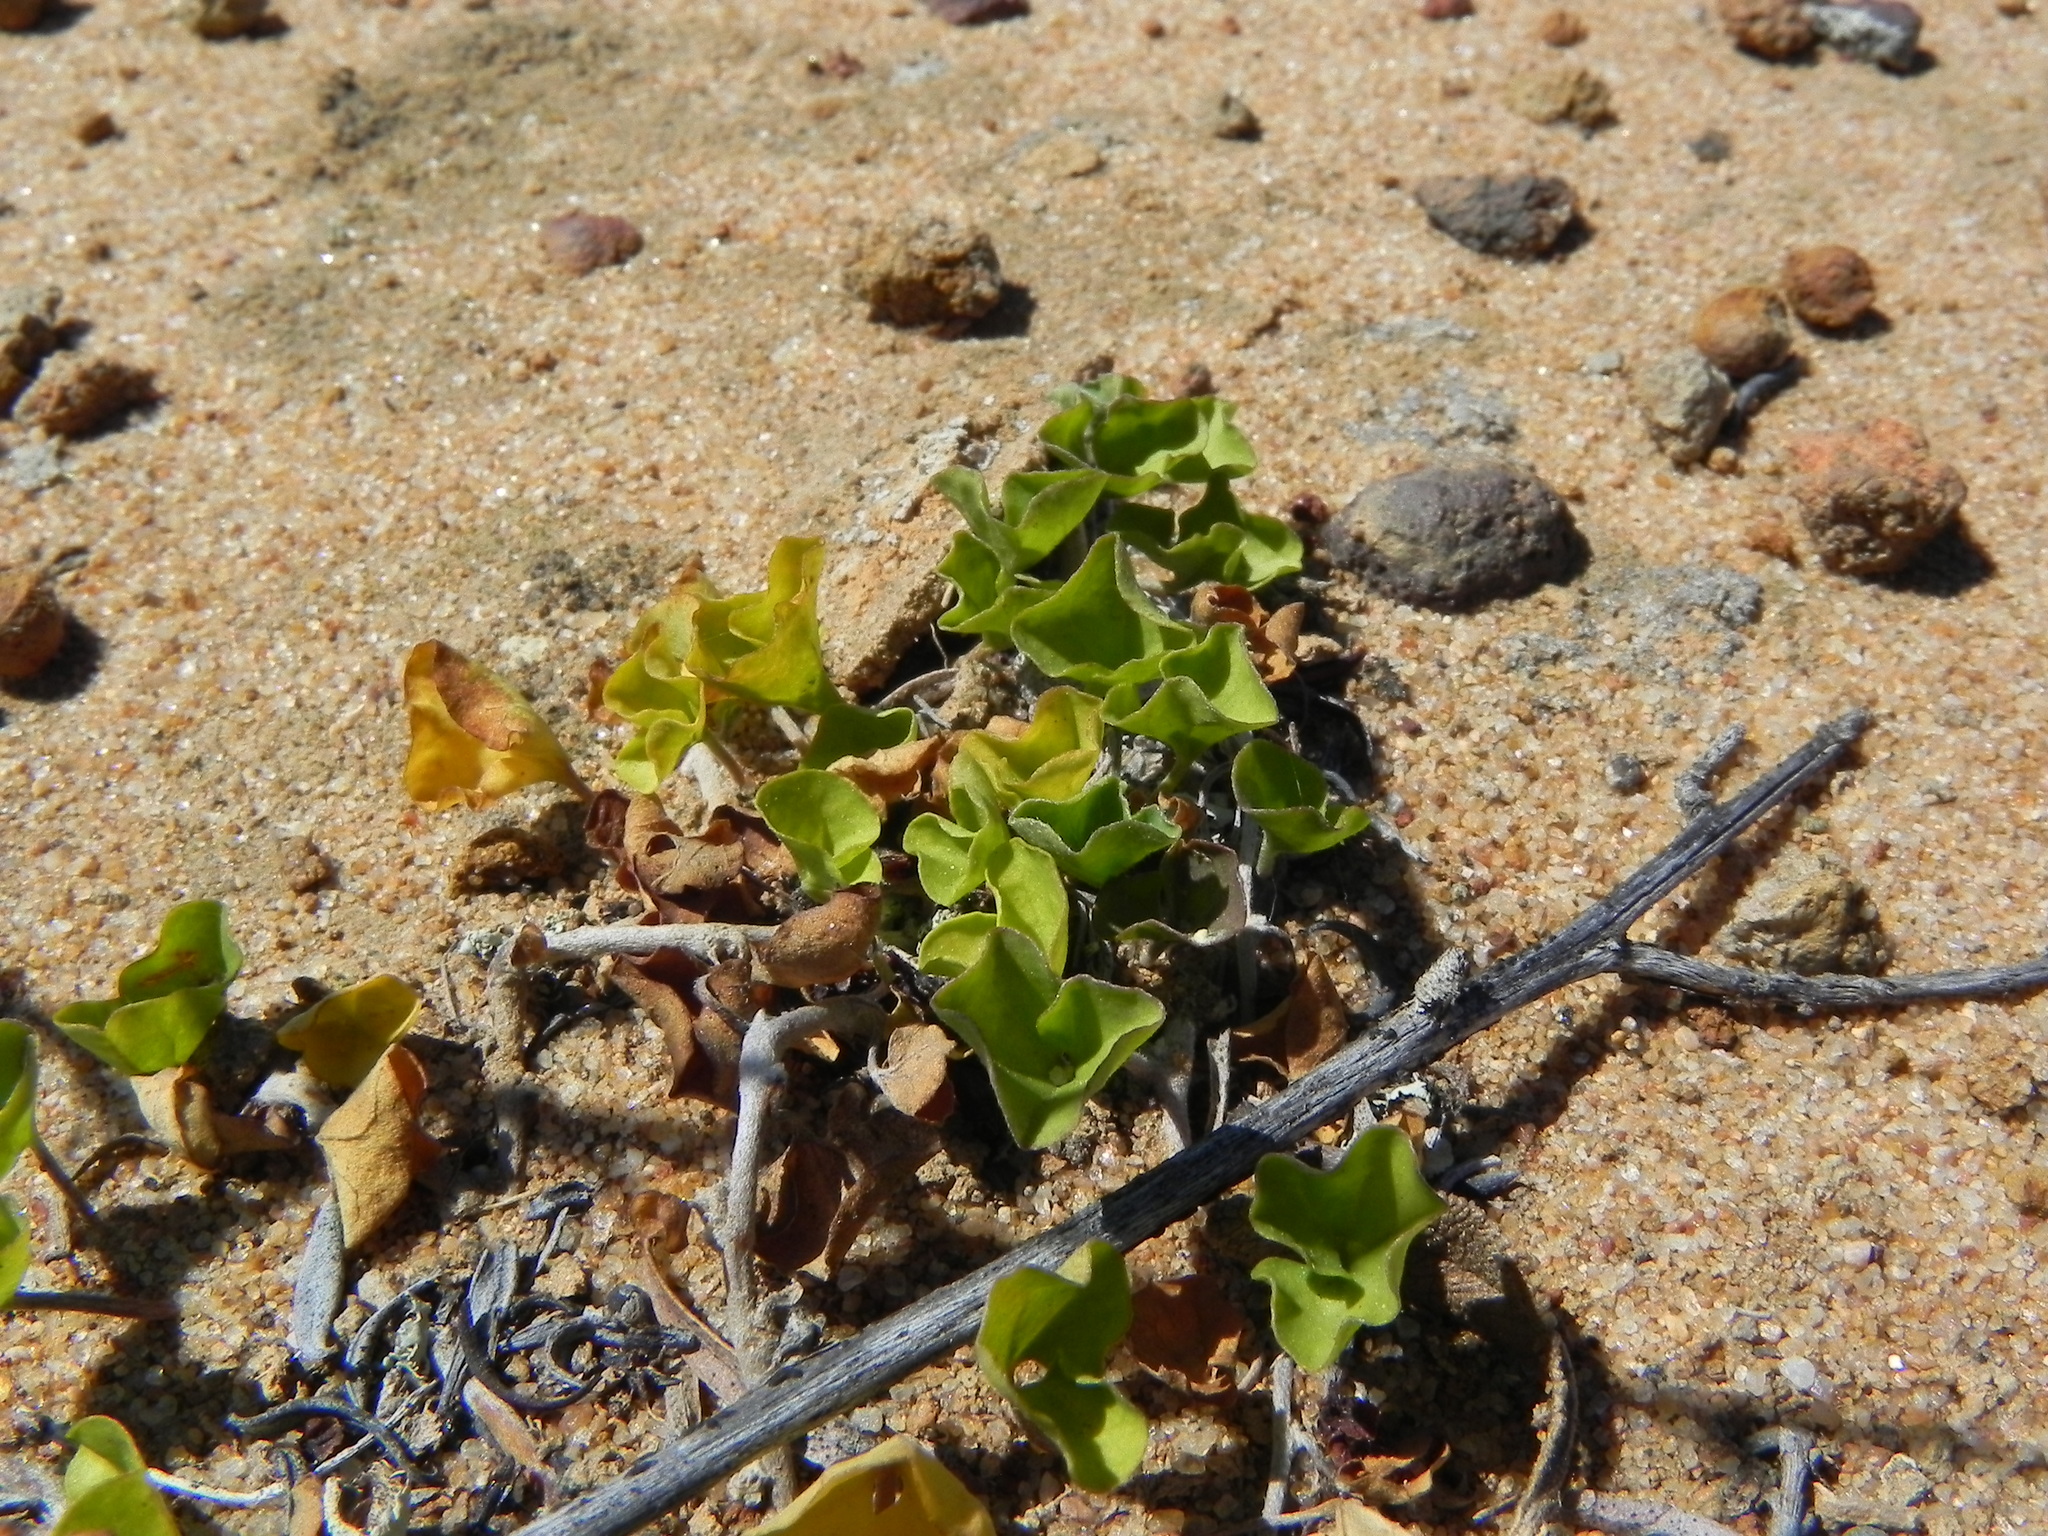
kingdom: Plantae
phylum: Tracheophyta
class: Magnoliopsida
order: Solanales
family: Convolvulaceae
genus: Dichondra
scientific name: Dichondra occidentalis
